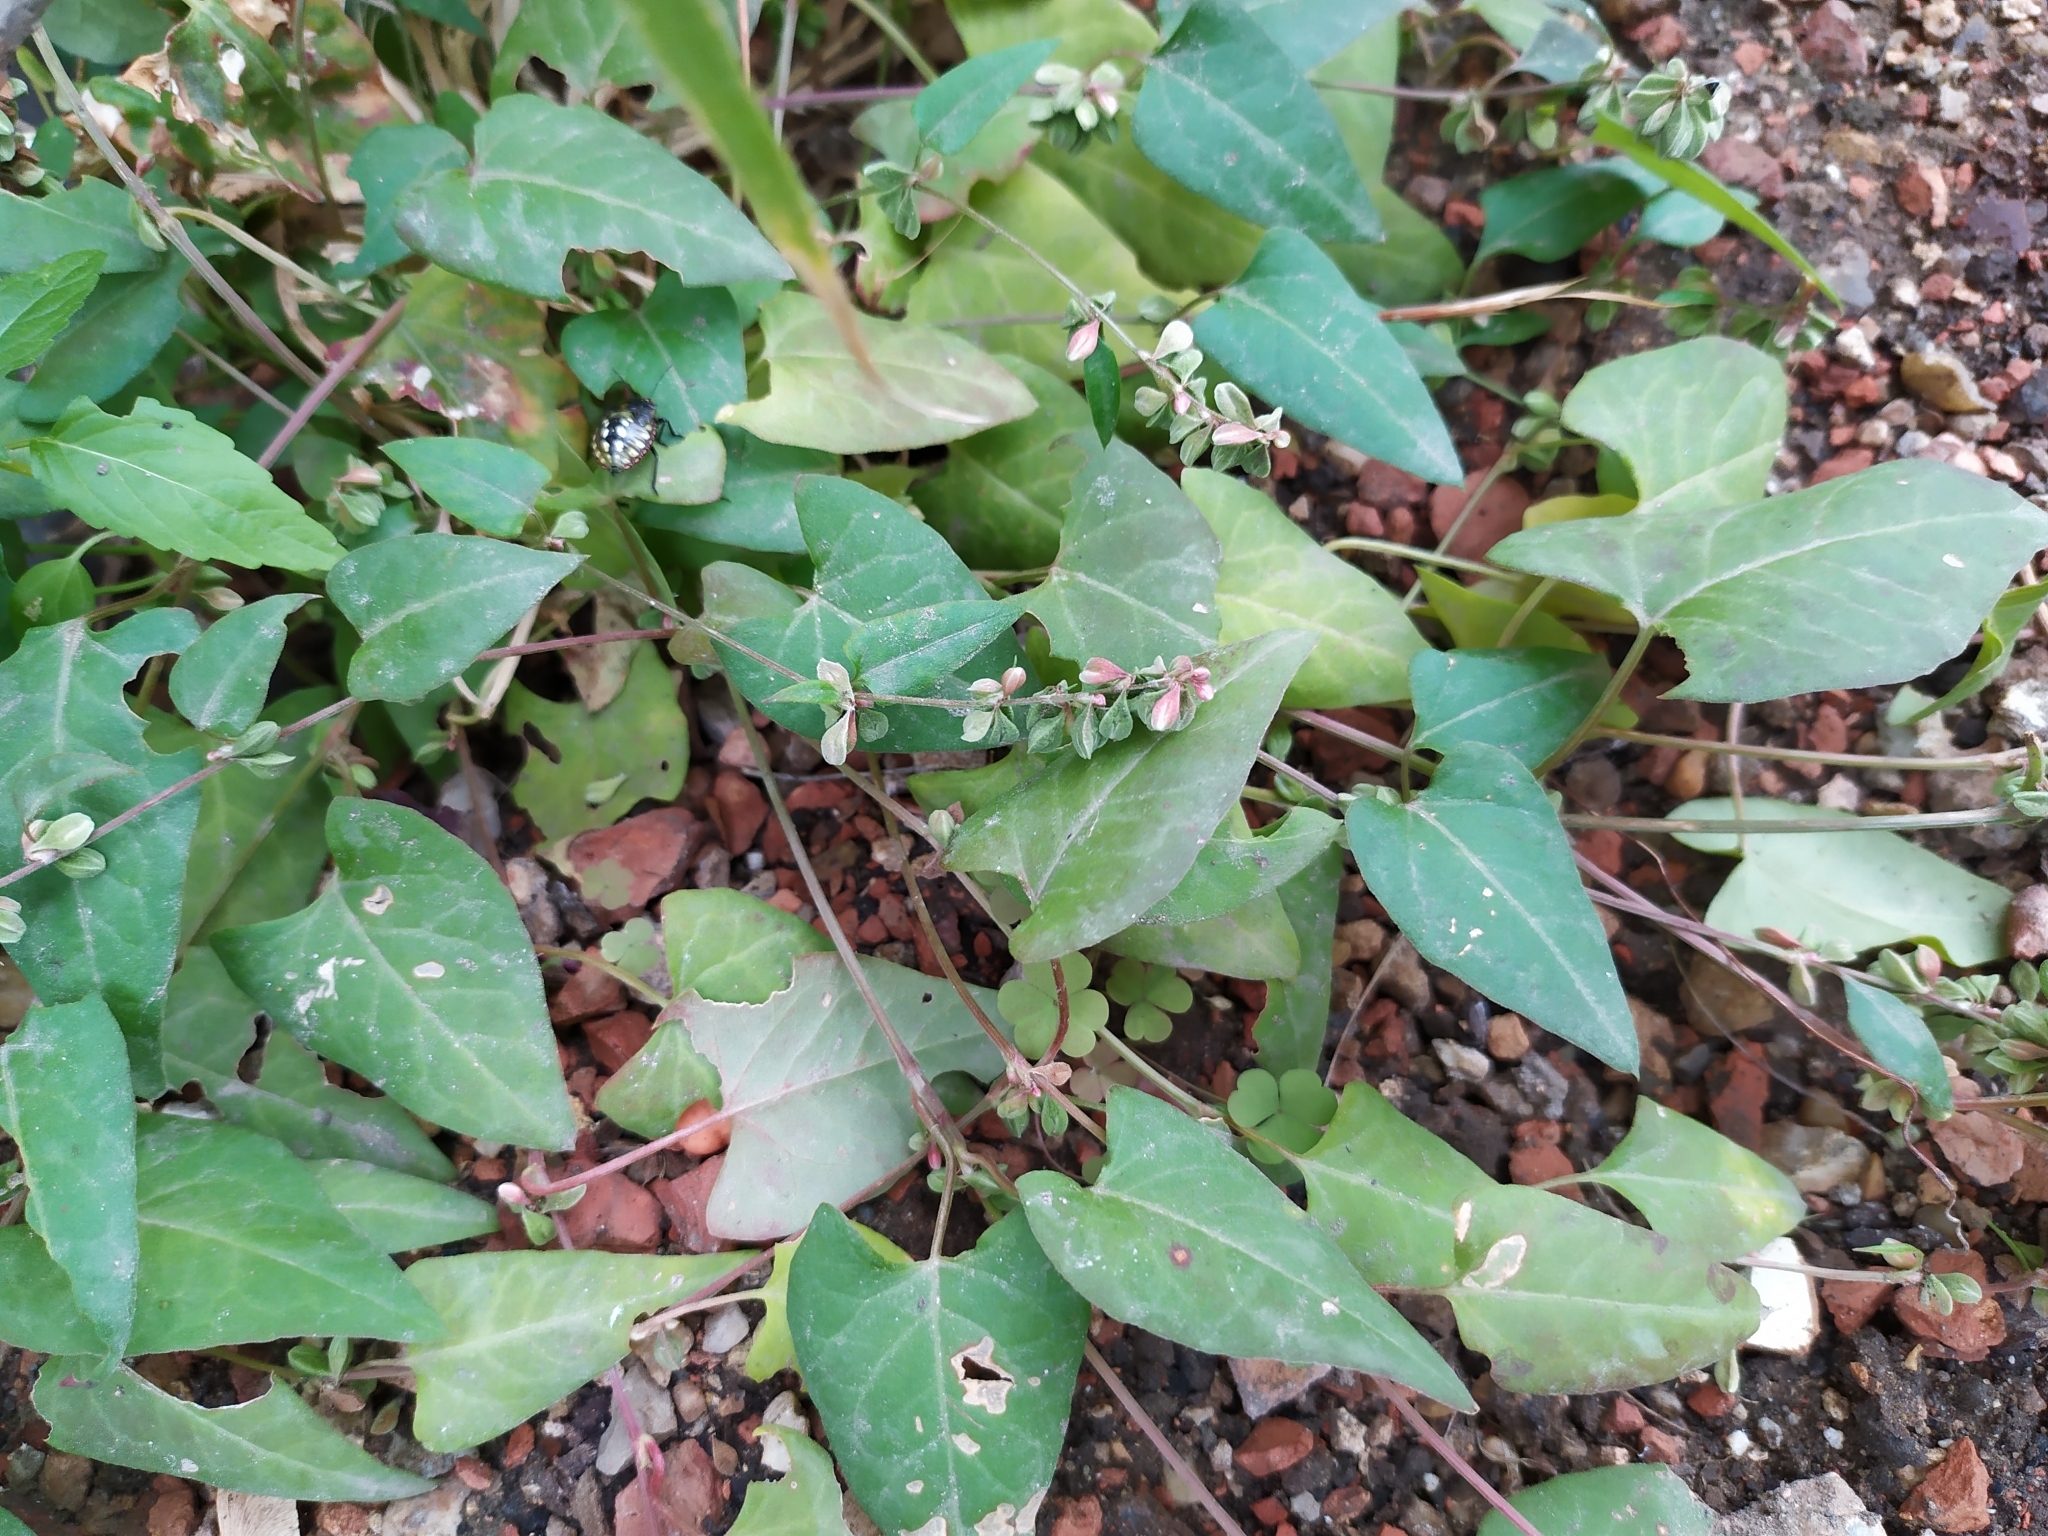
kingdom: Plantae
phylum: Tracheophyta
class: Magnoliopsida
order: Caryophyllales
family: Polygonaceae
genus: Fallopia
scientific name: Fallopia convolvulus
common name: Black bindweed
